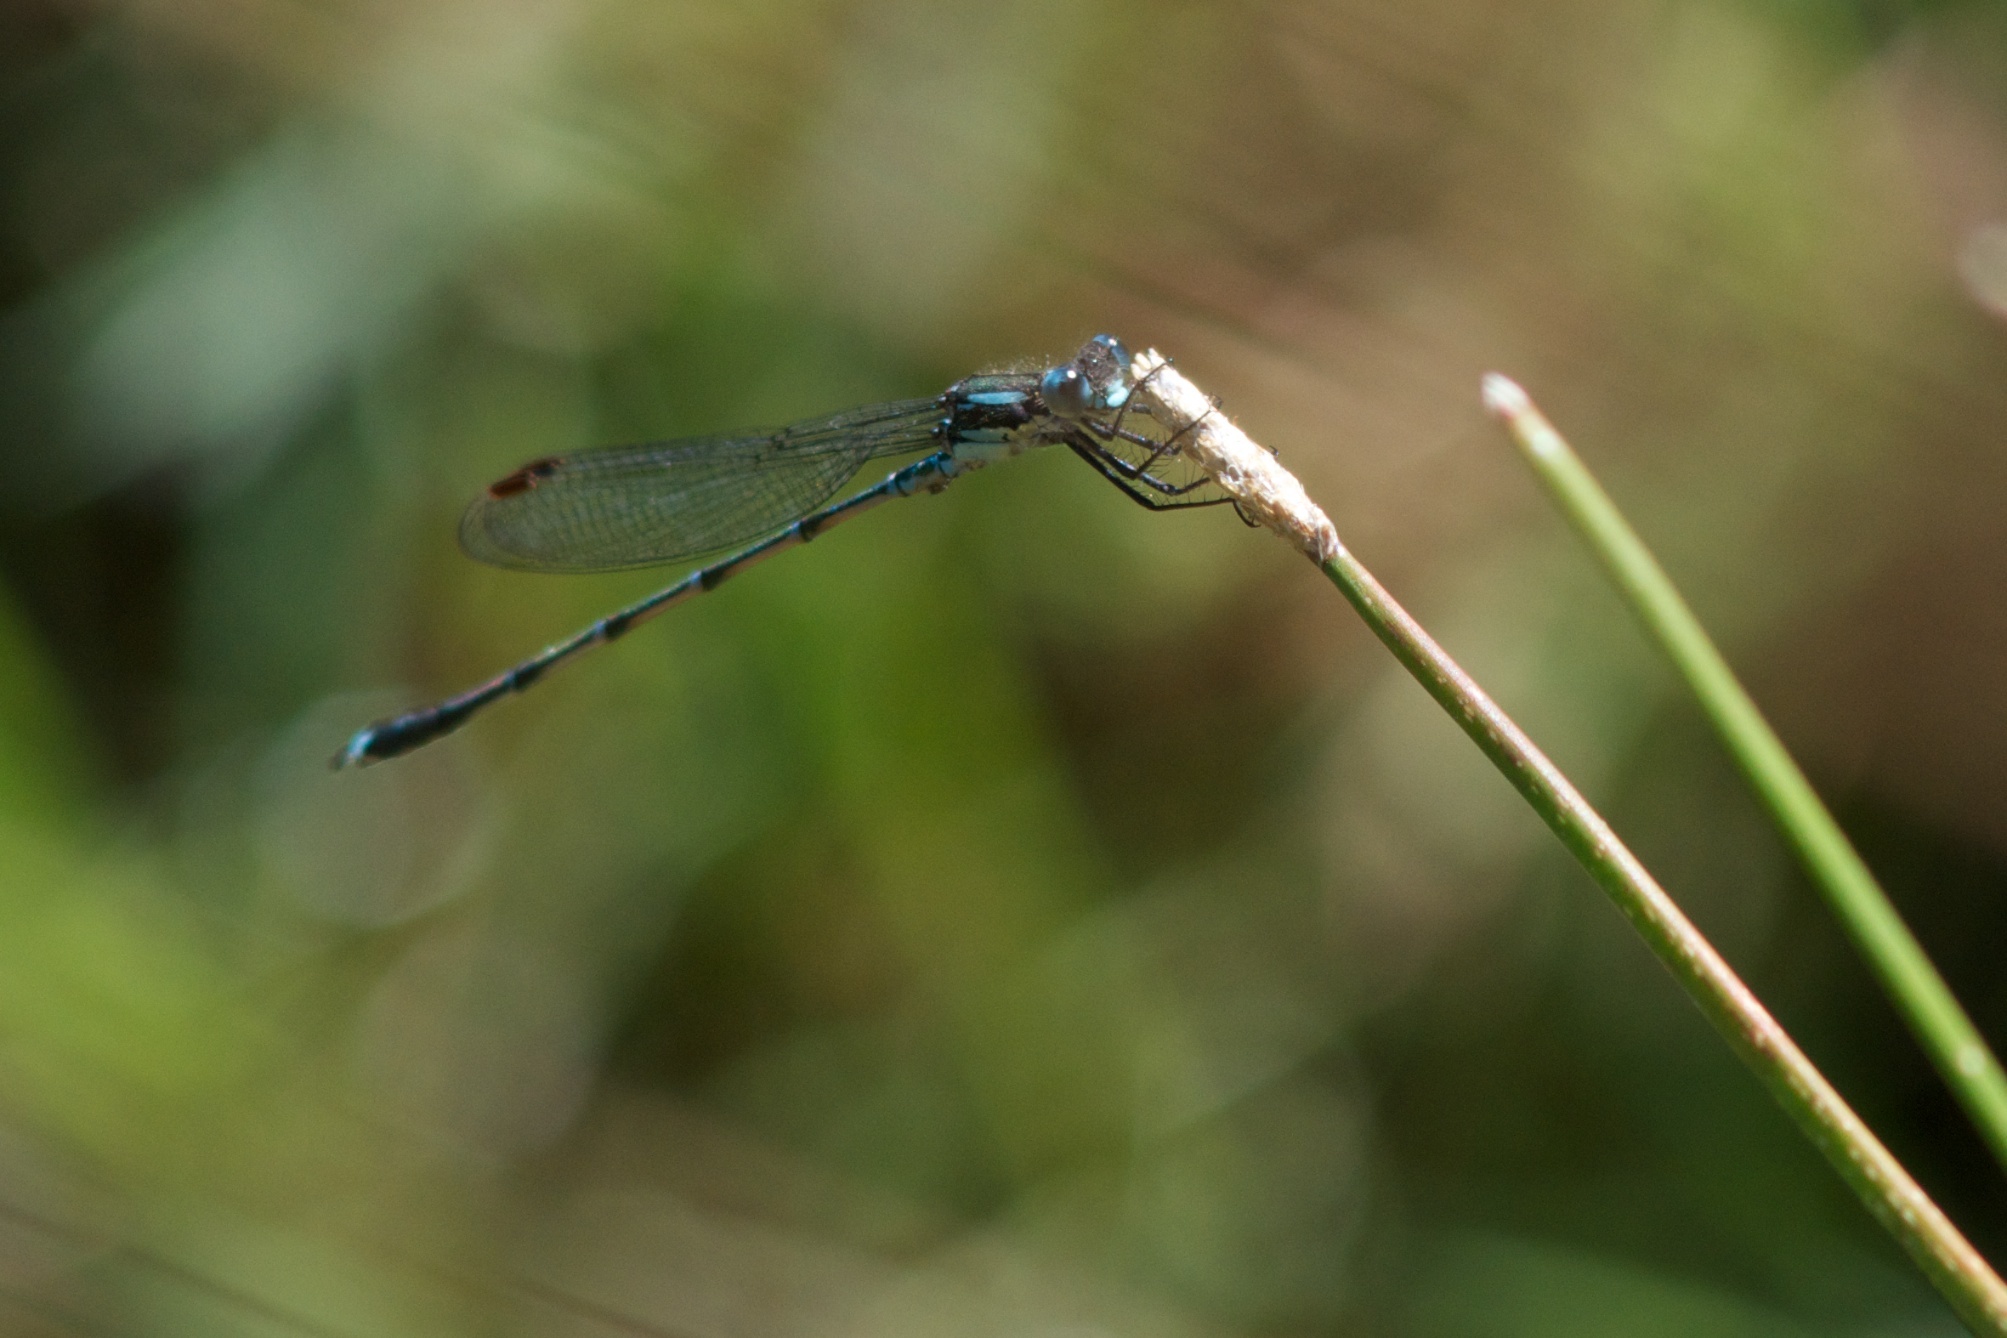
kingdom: Animalia
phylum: Arthropoda
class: Insecta
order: Odonata
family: Lestidae
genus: Austrolestes
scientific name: Austrolestes colensonis
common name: Blue damselfly
